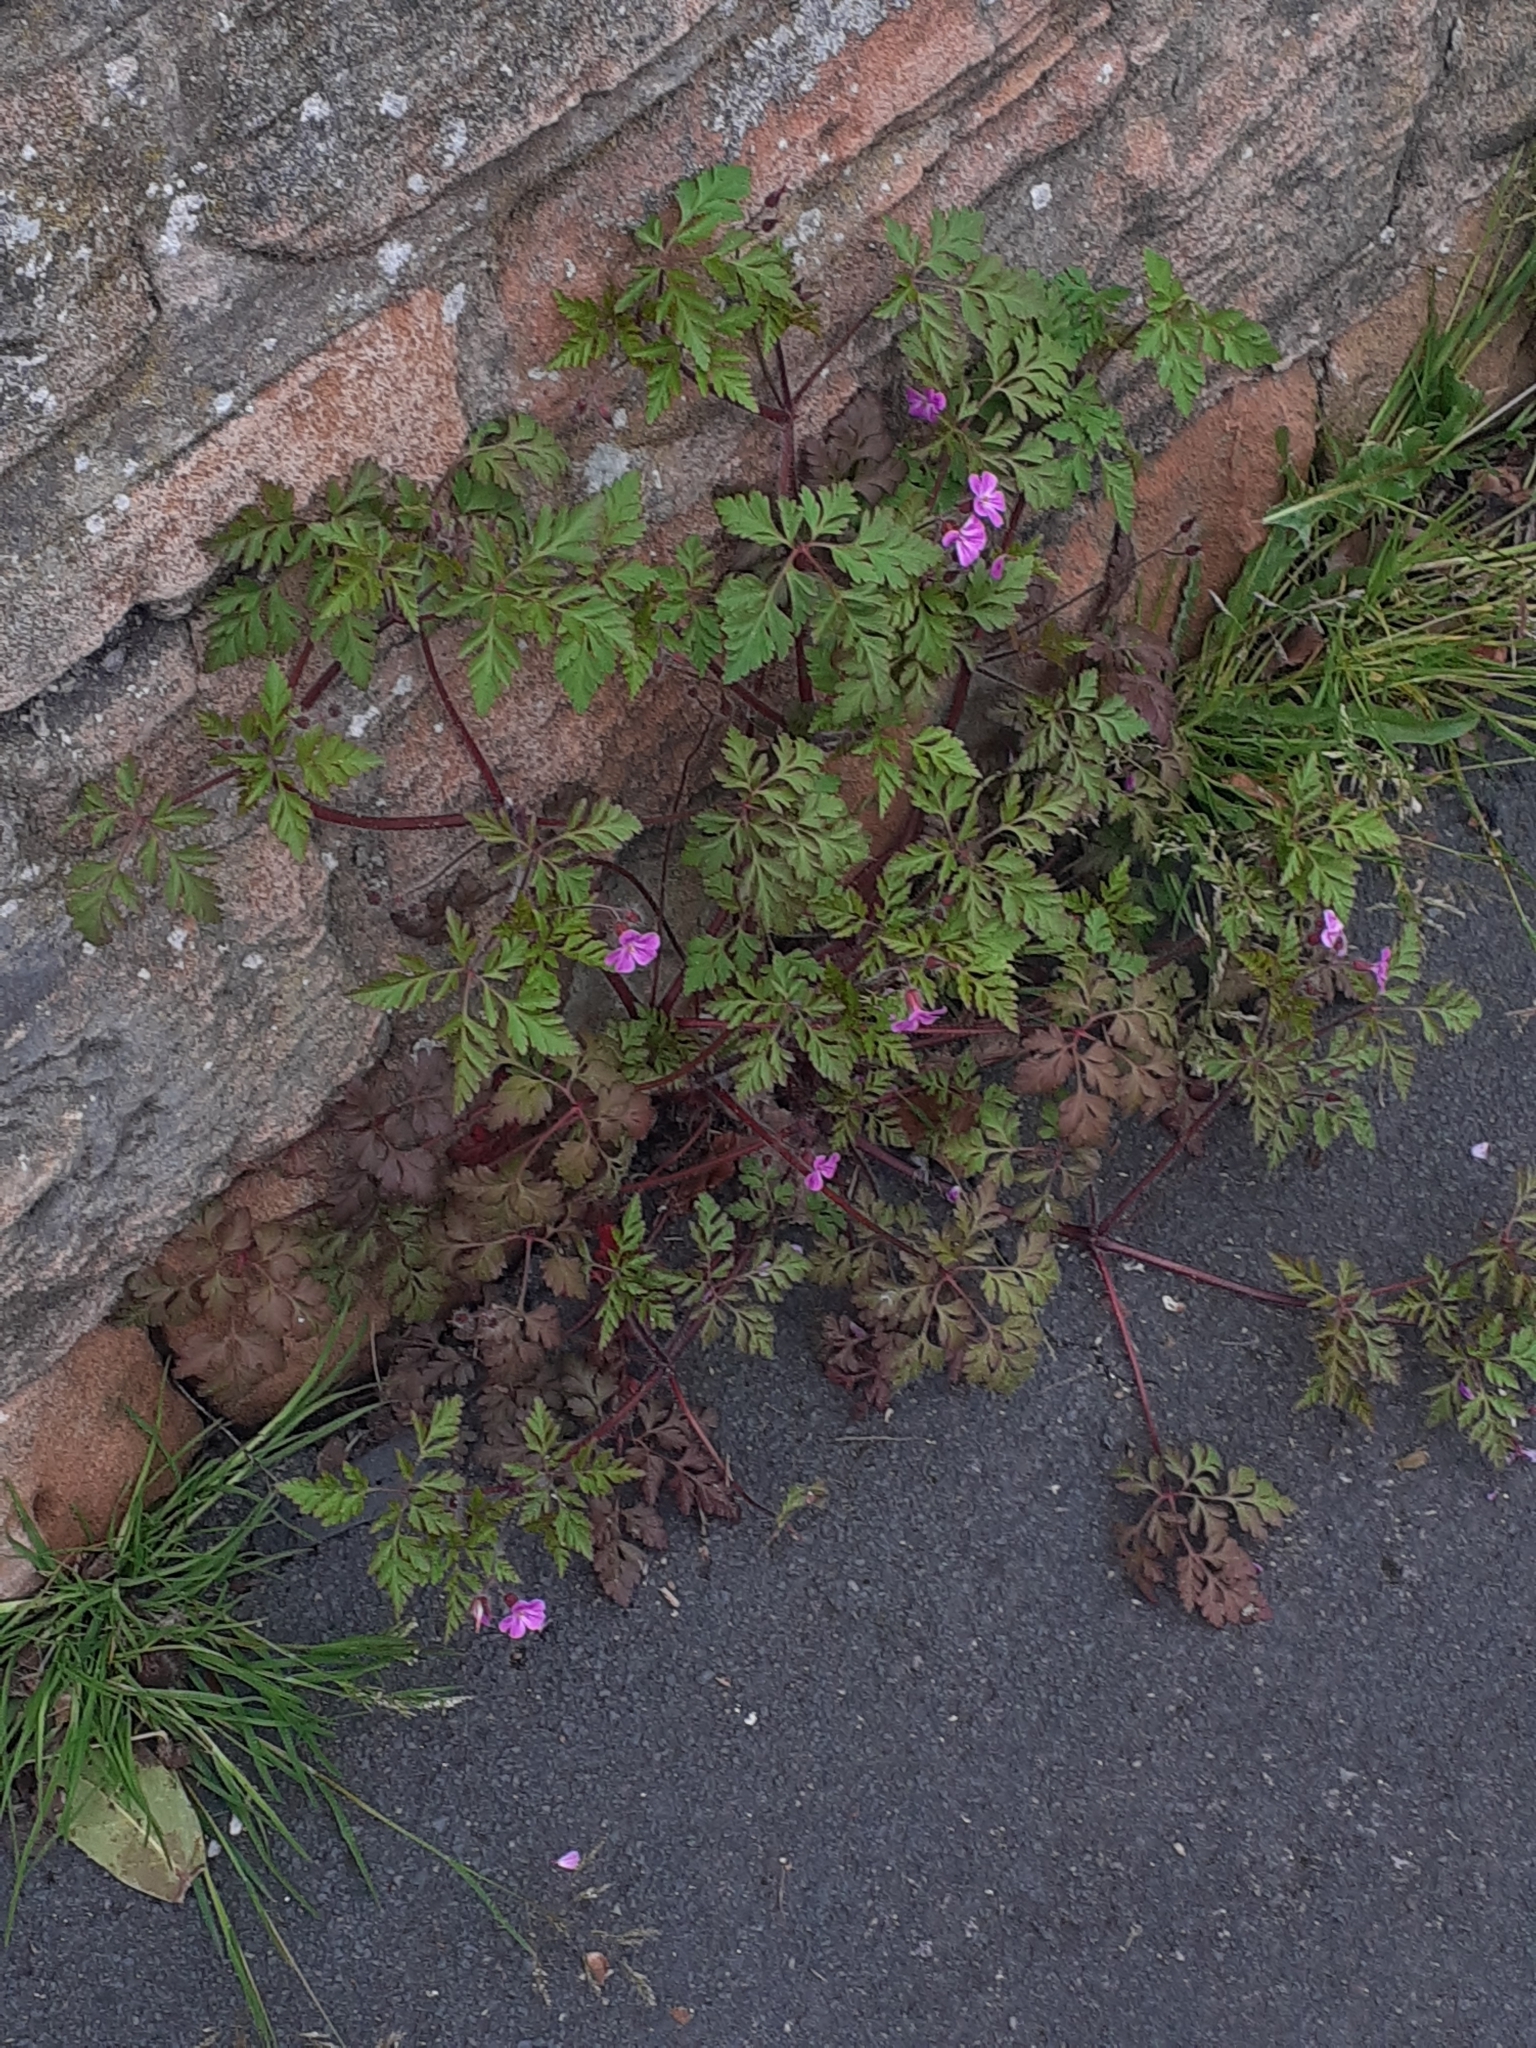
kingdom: Plantae
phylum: Tracheophyta
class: Magnoliopsida
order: Geraniales
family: Geraniaceae
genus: Geranium
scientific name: Geranium robertianum
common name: Herb-robert
